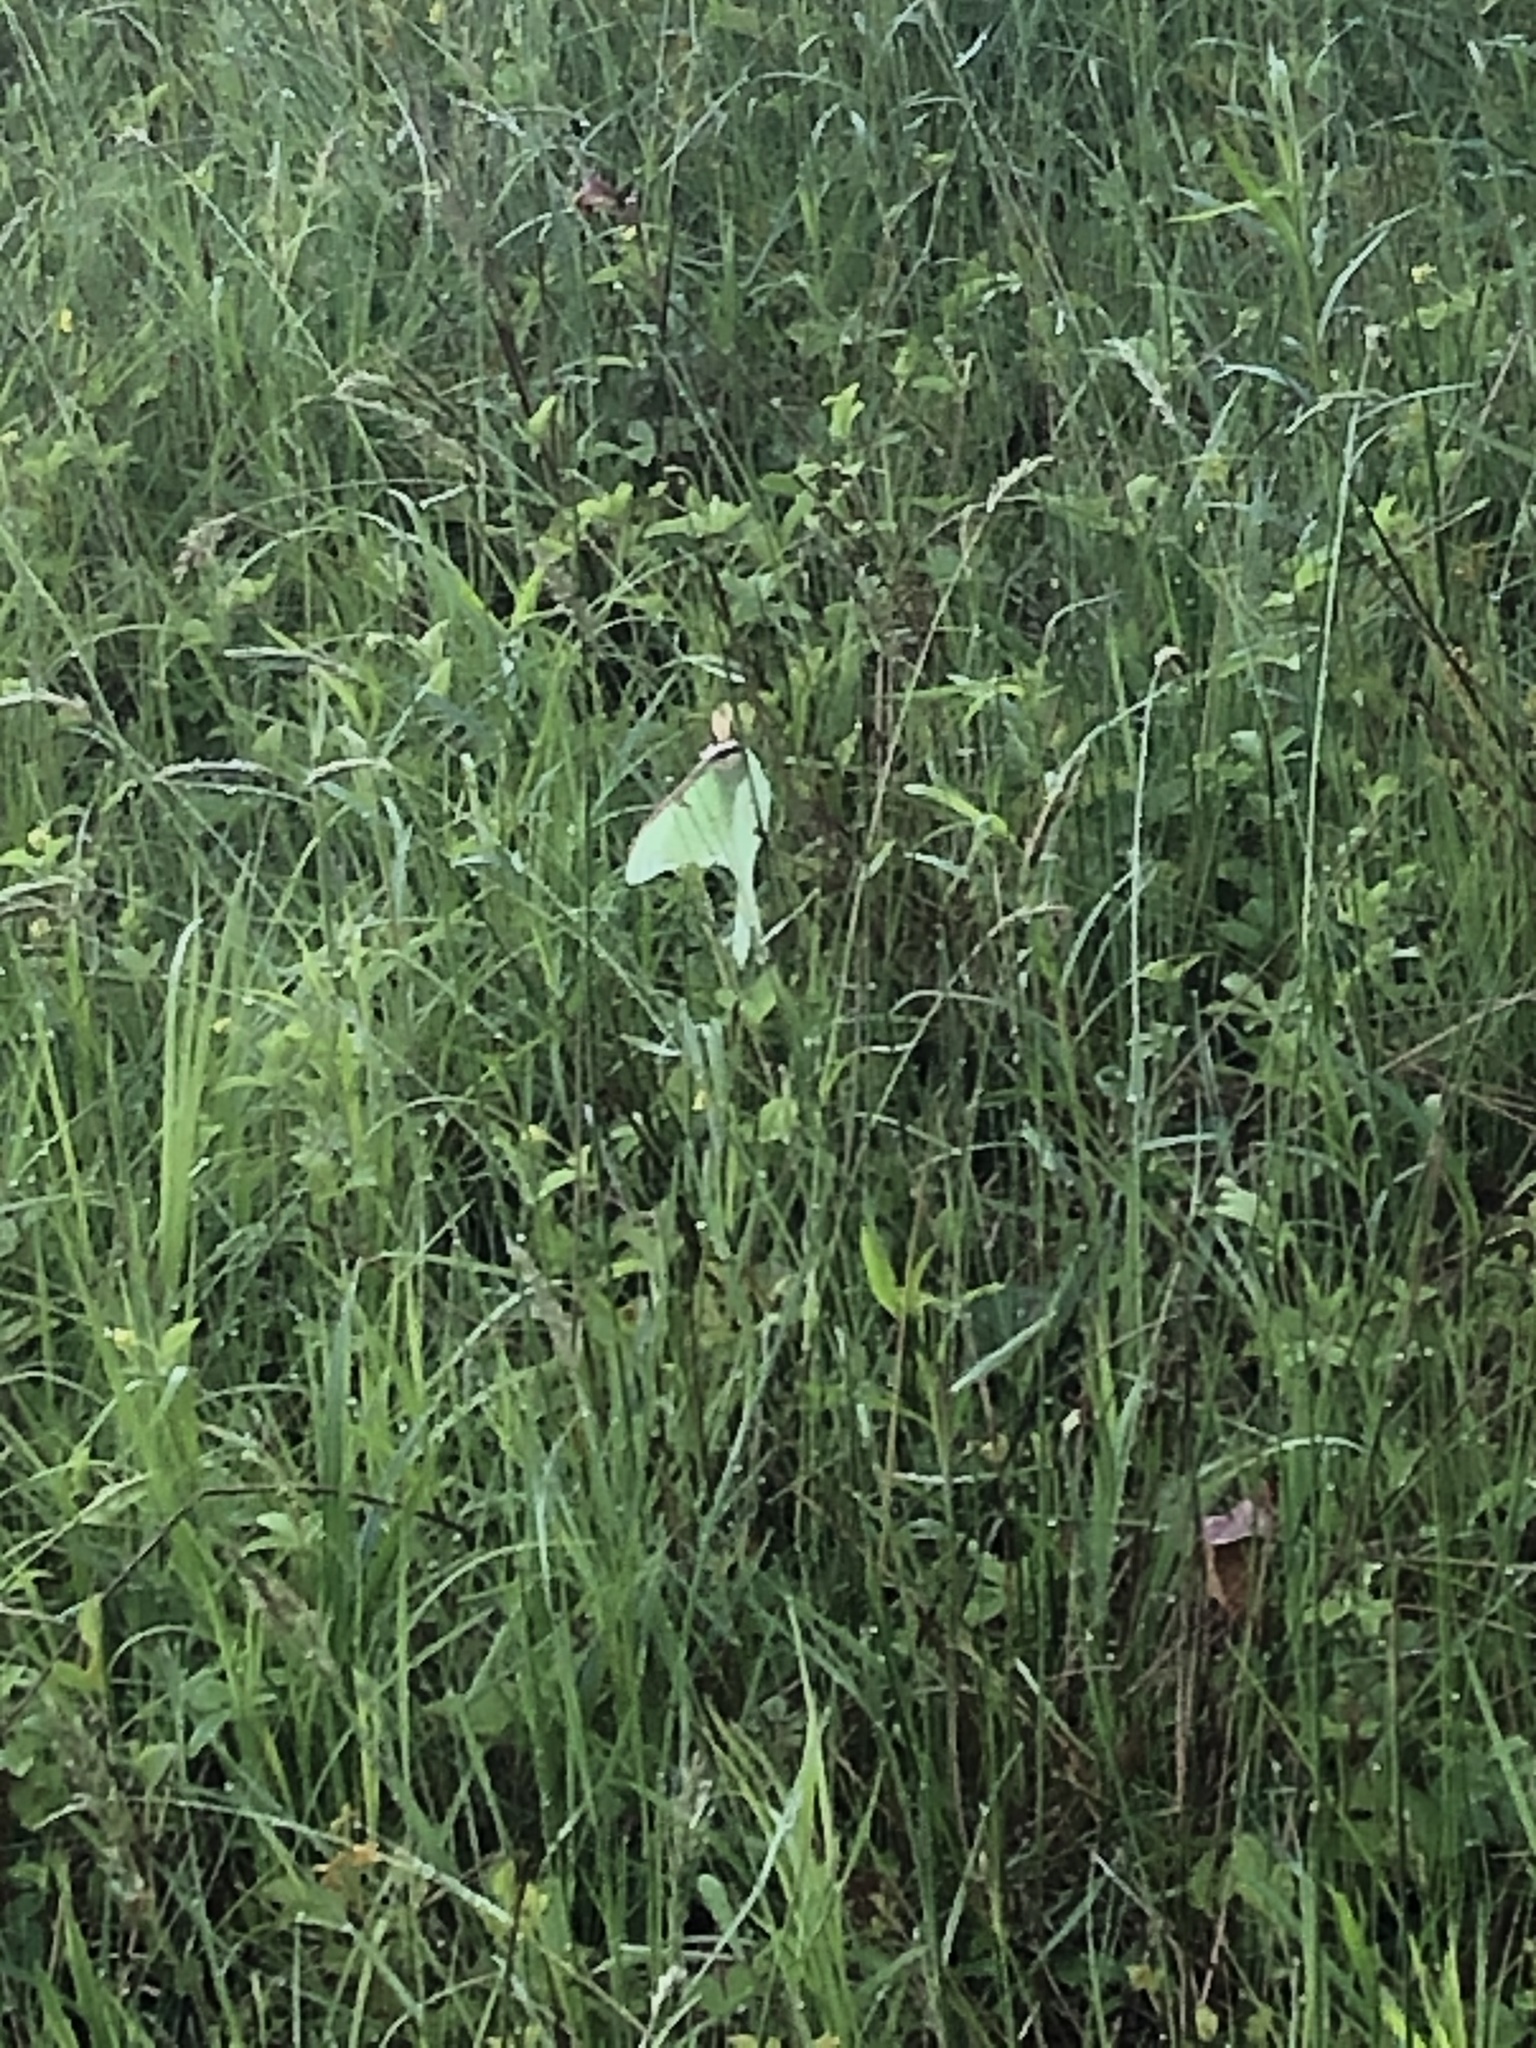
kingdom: Animalia
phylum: Arthropoda
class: Insecta
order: Lepidoptera
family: Saturniidae
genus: Actias
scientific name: Actias luna
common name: Luna moth
